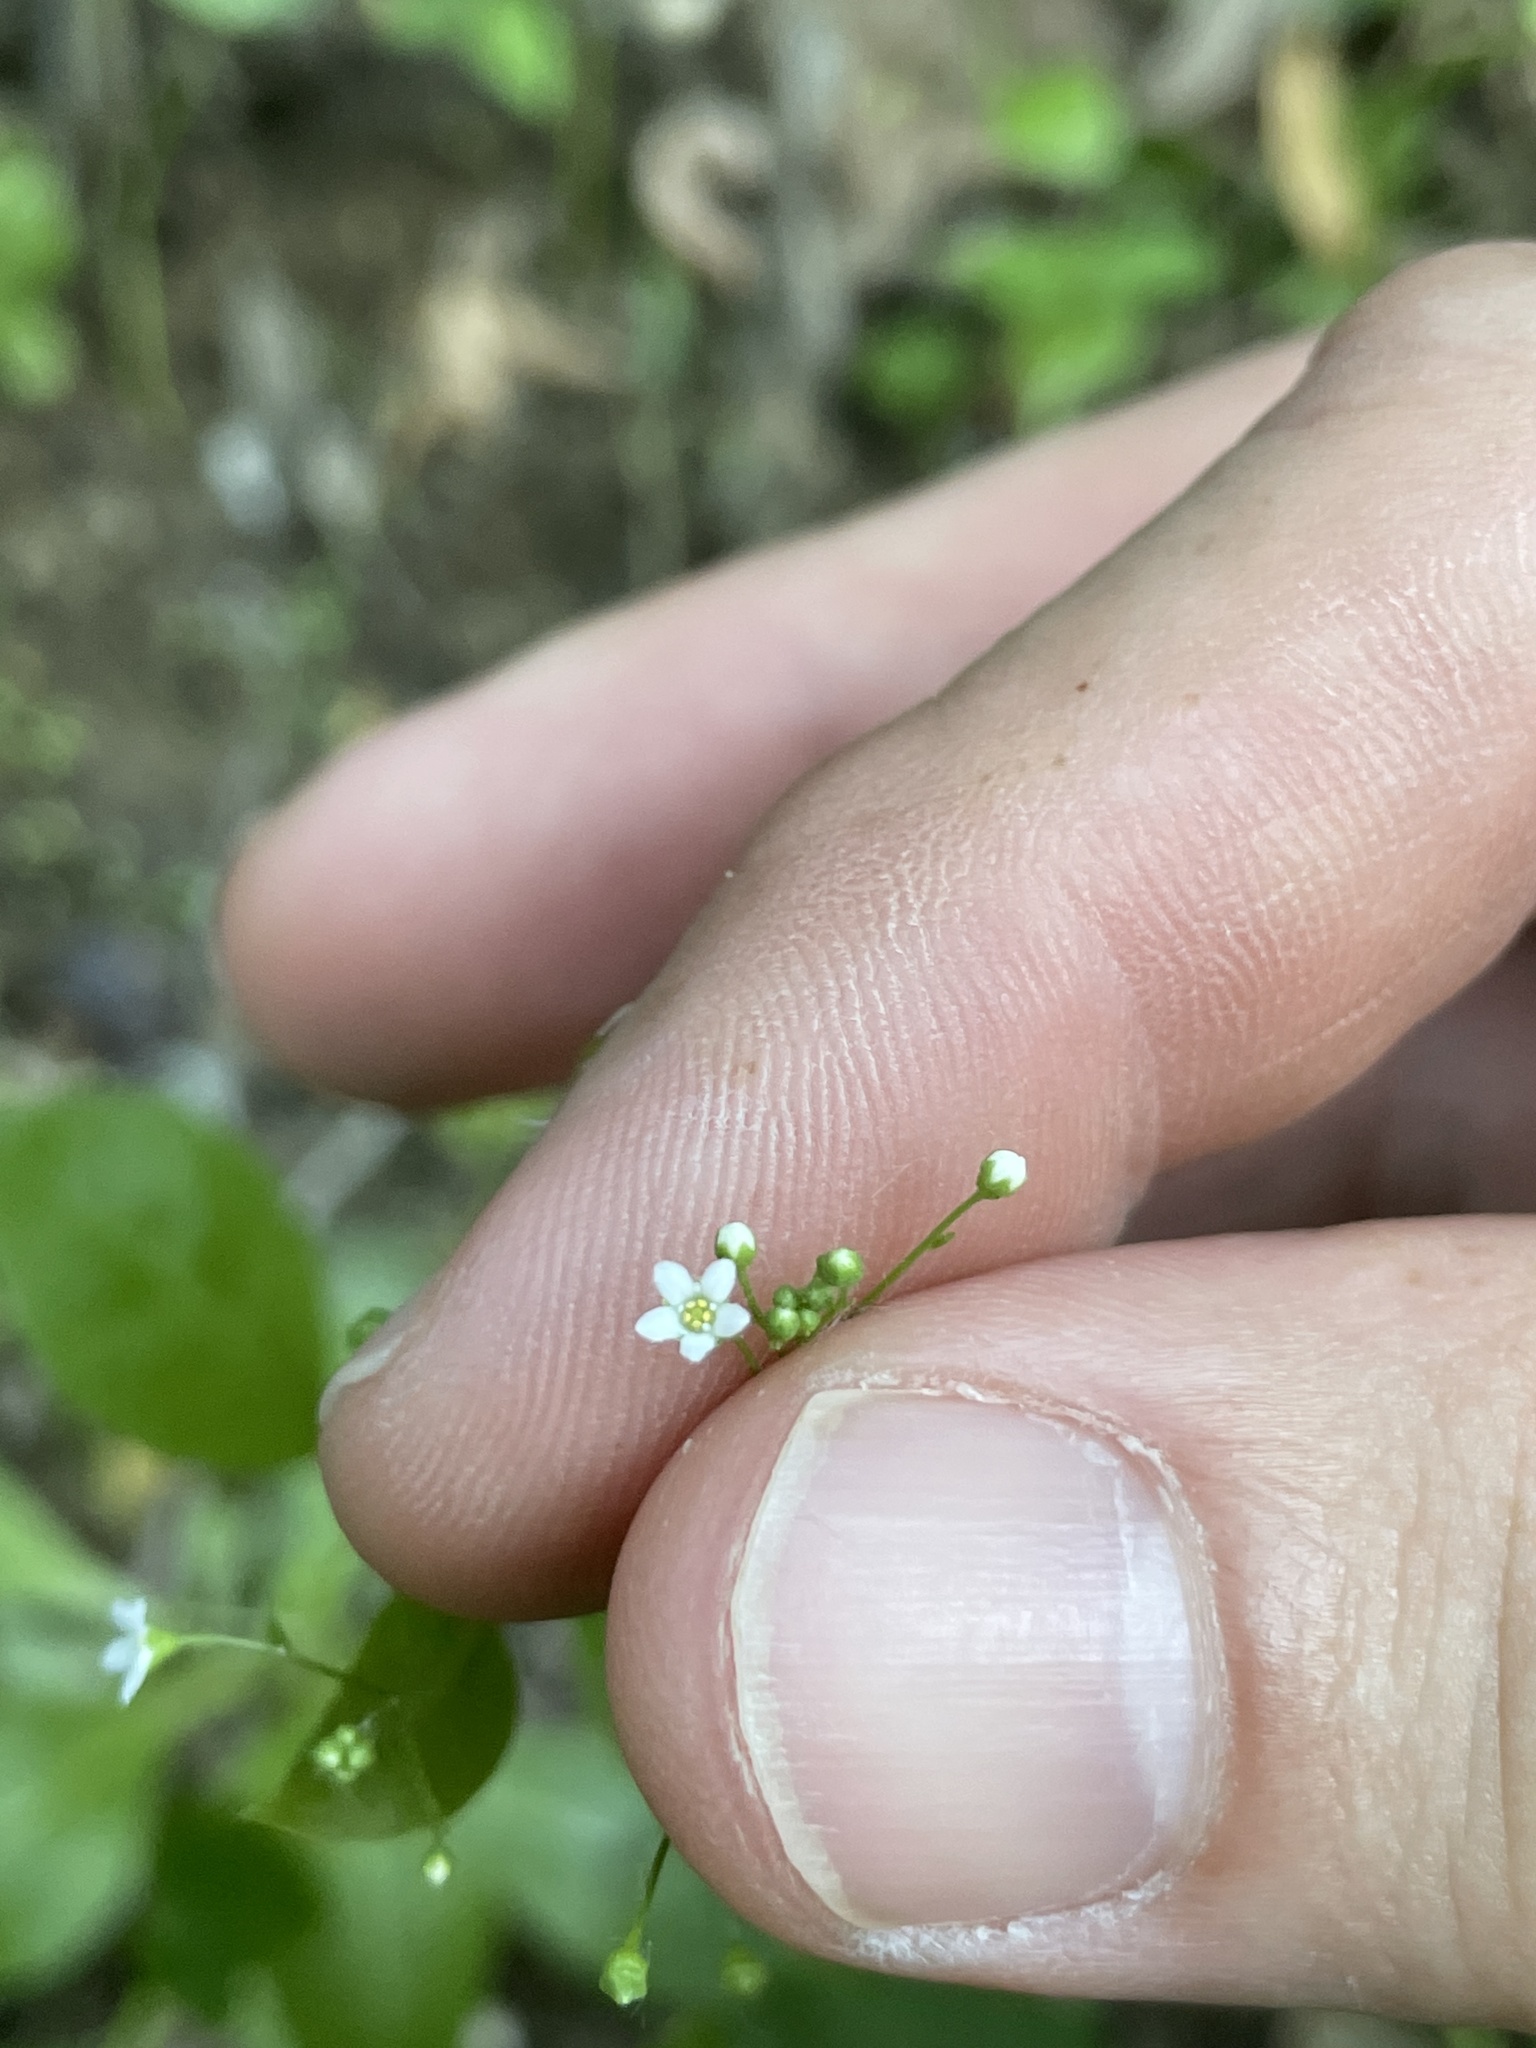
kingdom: Plantae
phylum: Tracheophyta
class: Magnoliopsida
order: Ericales
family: Primulaceae
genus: Samolus
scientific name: Samolus parviflorus
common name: False water pimpernel
